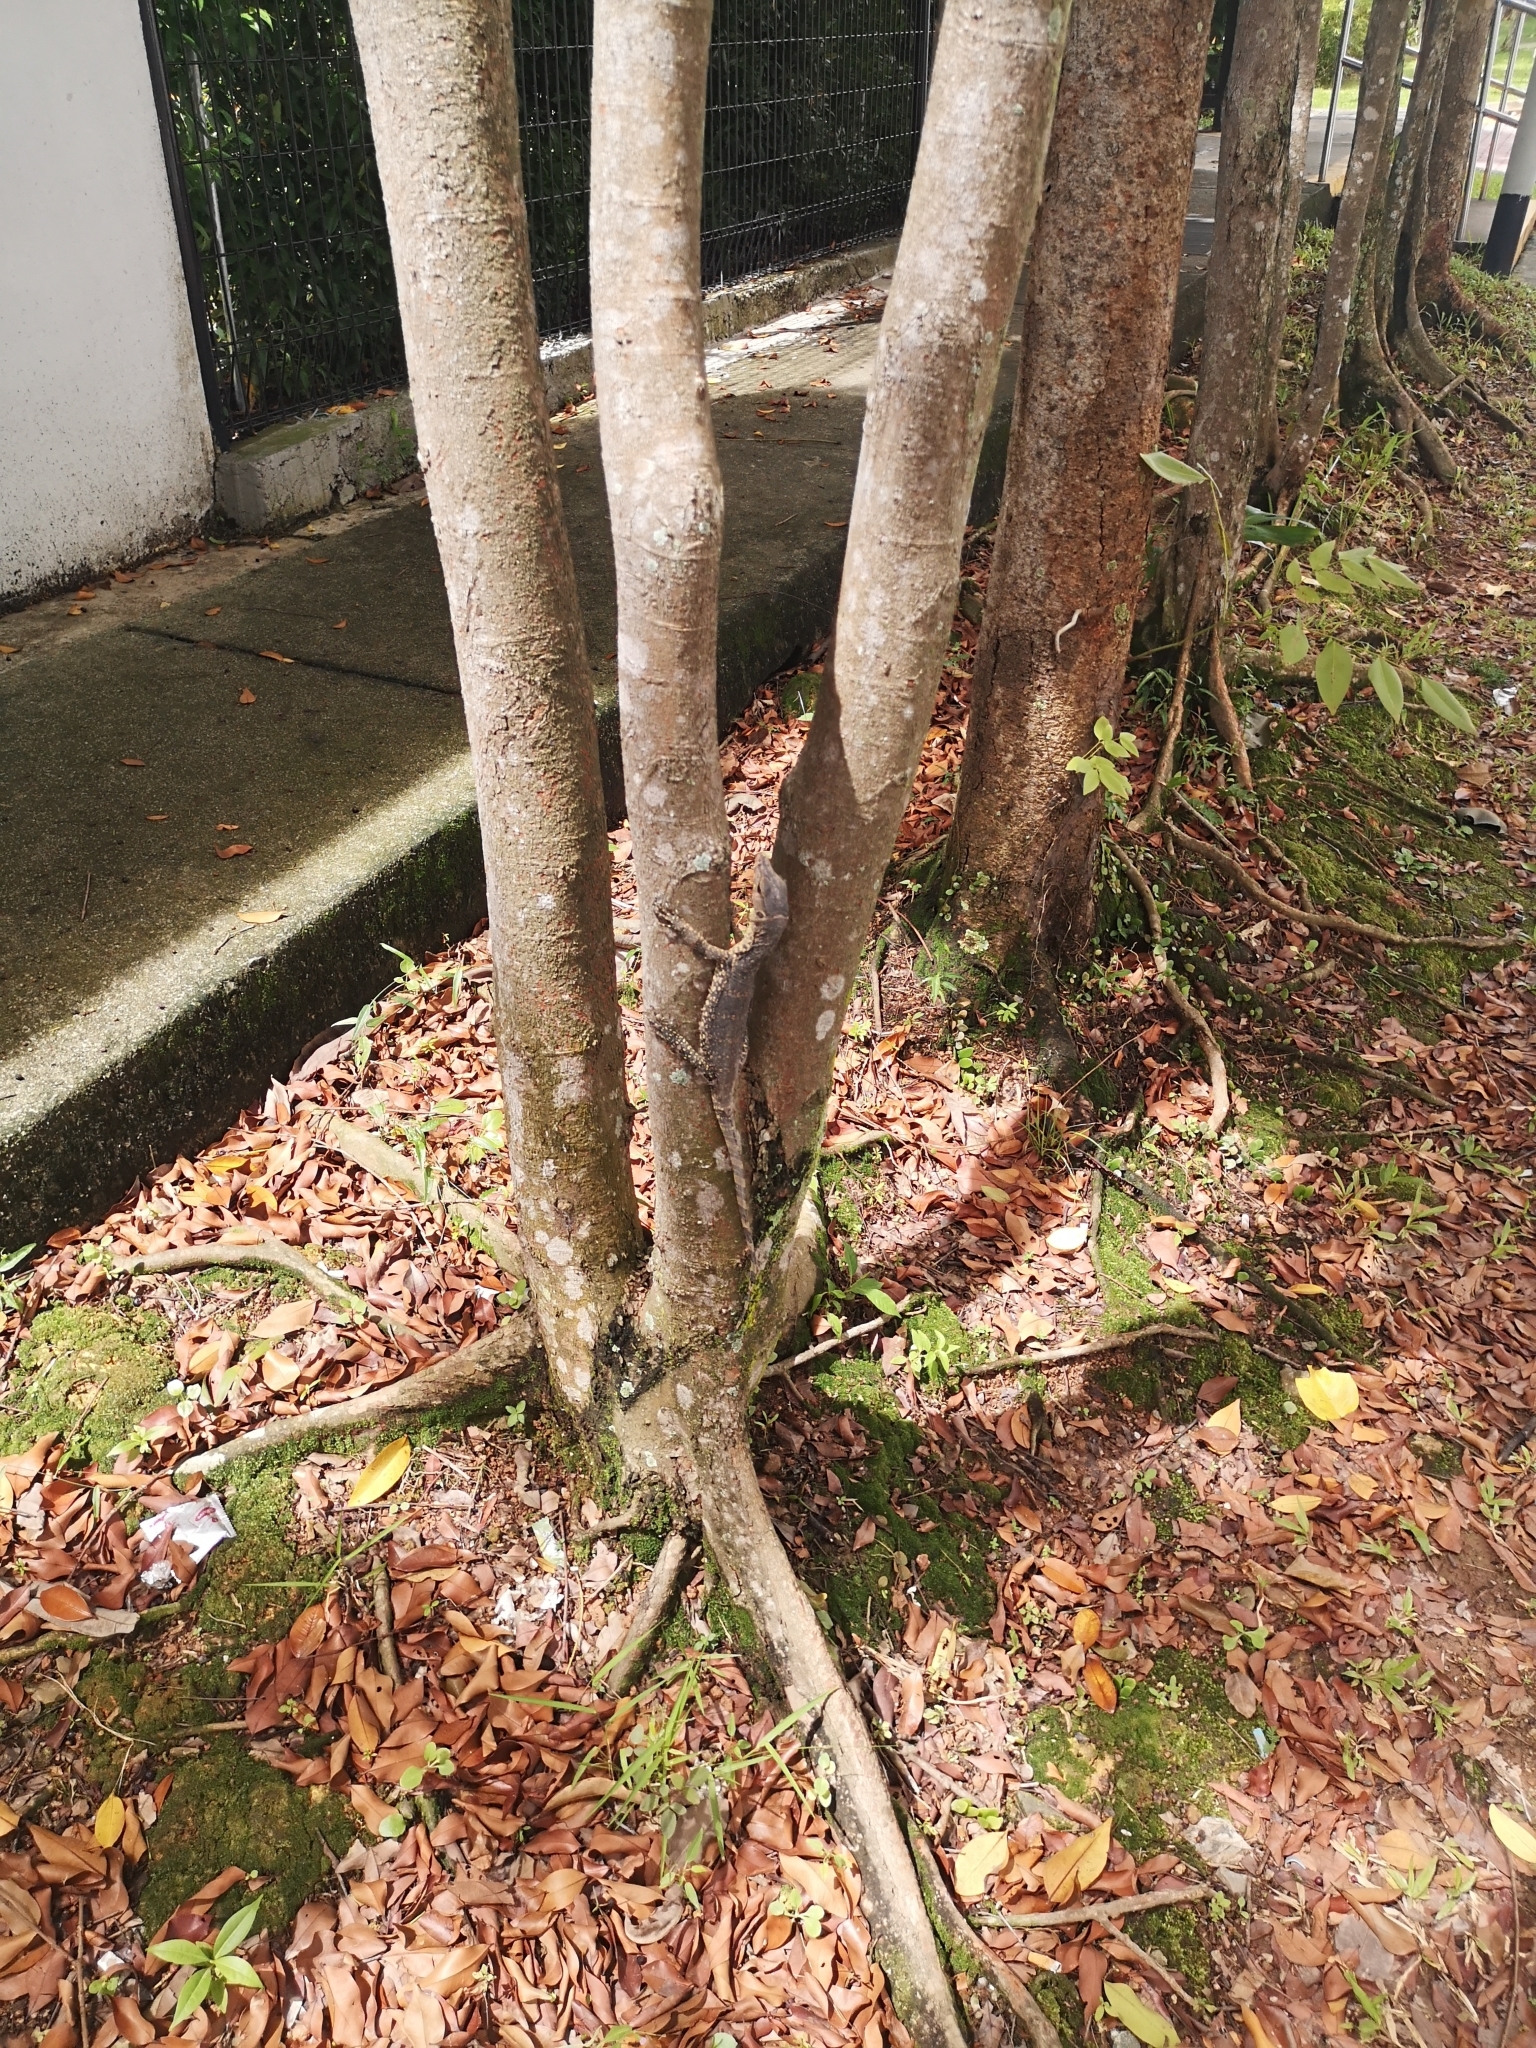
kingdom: Animalia
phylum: Chordata
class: Squamata
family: Varanidae
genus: Varanus
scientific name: Varanus salvator
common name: Common water monitor
